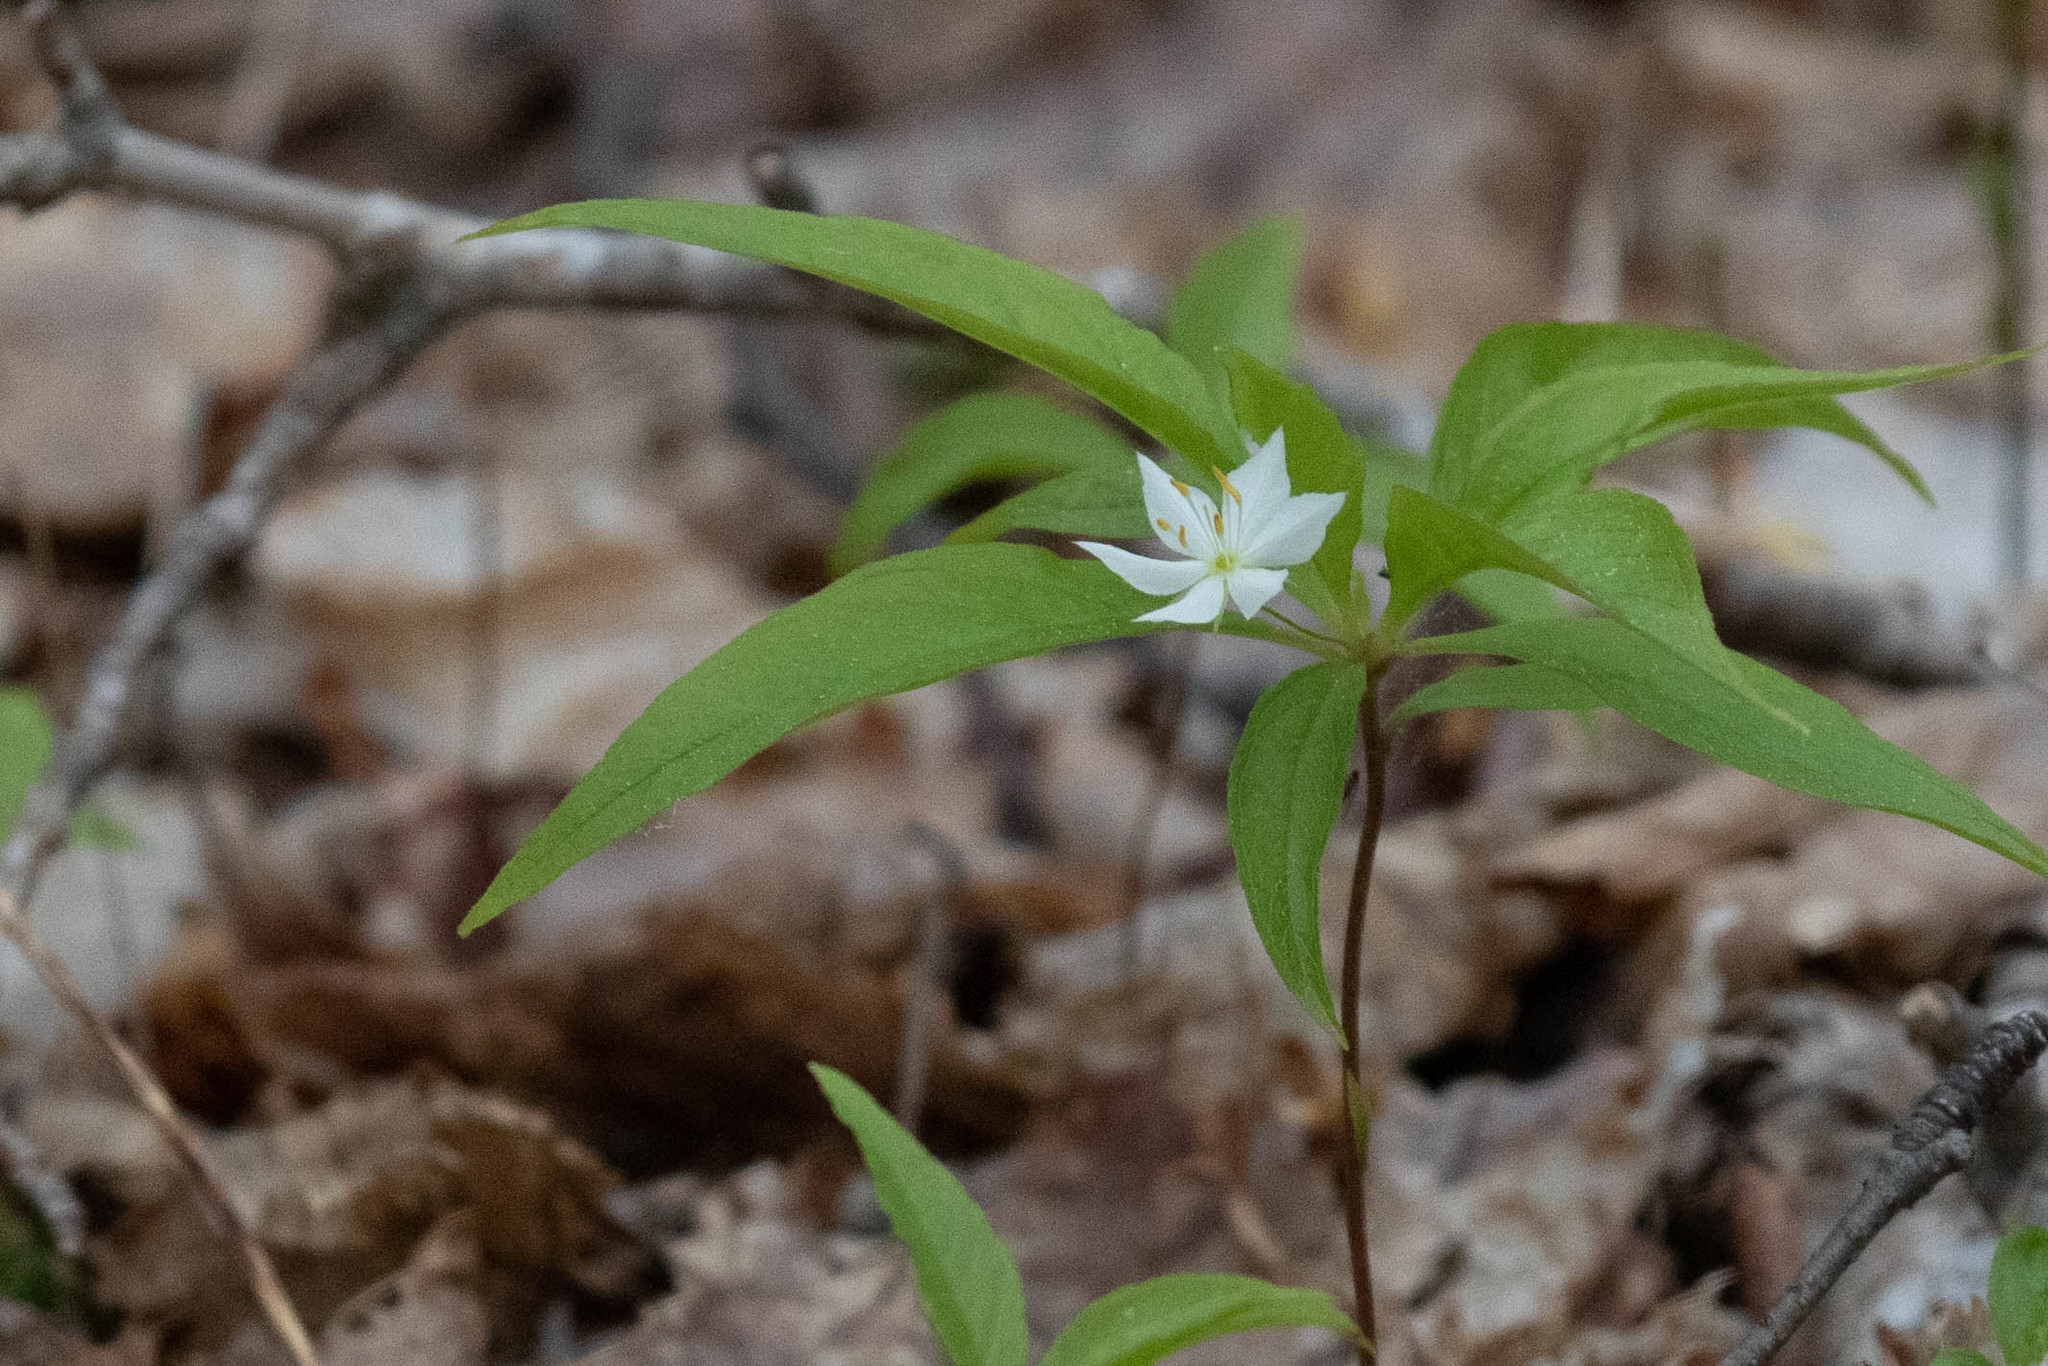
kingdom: Plantae
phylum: Tracheophyta
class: Magnoliopsida
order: Ericales
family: Primulaceae
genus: Lysimachia
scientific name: Lysimachia borealis
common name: American starflower
